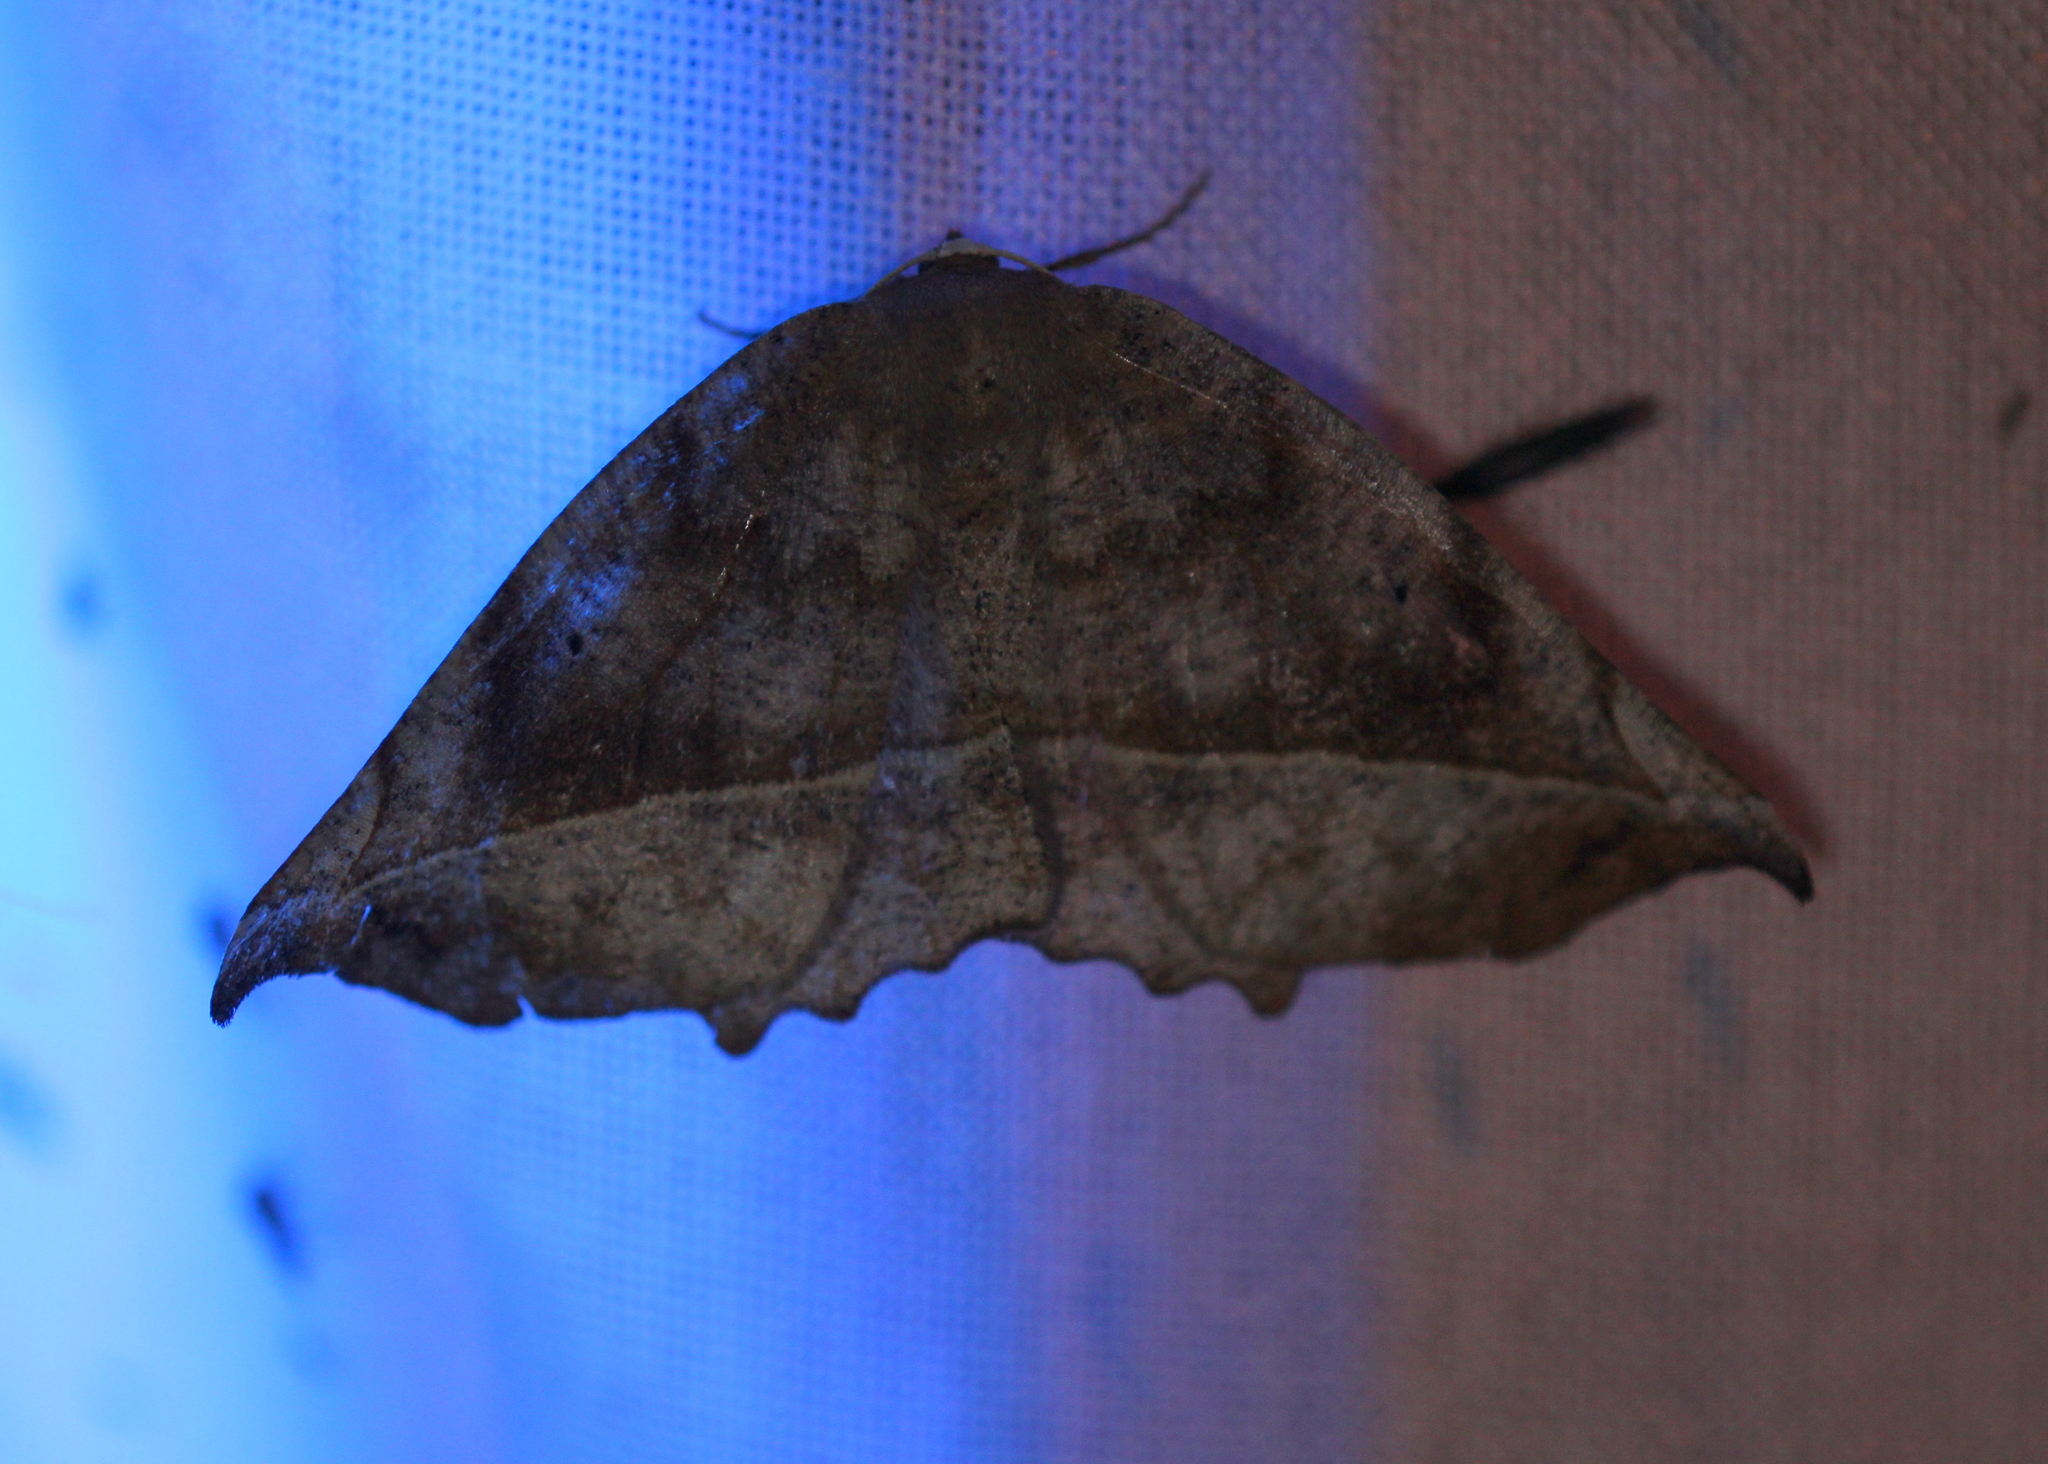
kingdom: Animalia
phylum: Arthropoda
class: Insecta
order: Lepidoptera
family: Geometridae
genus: Eutrapela
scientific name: Eutrapela clemataria
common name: Curved-toothed geometer
